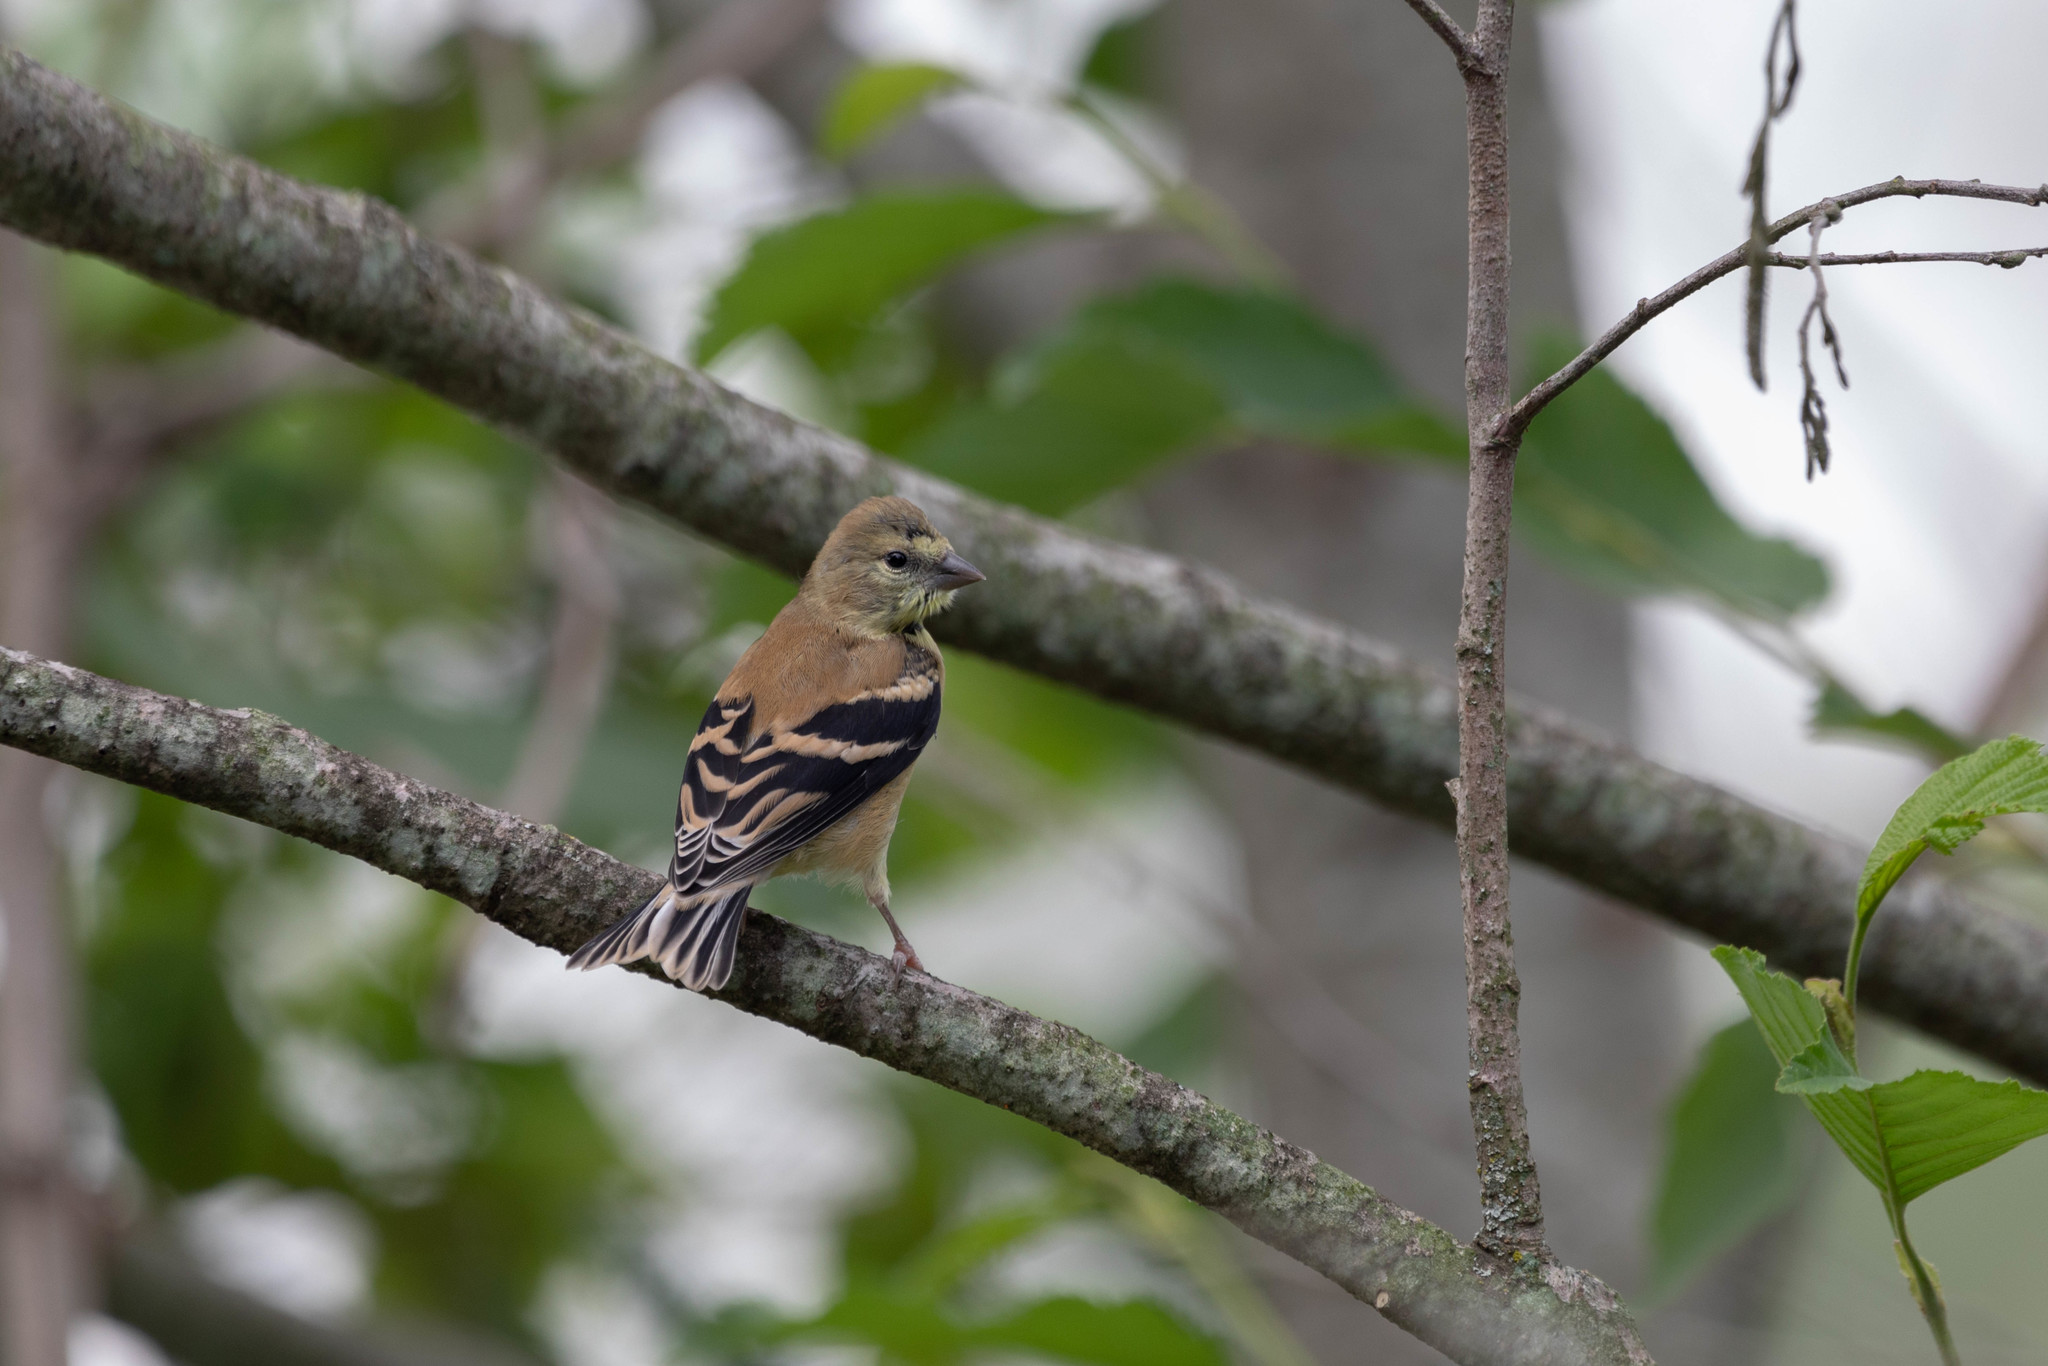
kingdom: Animalia
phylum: Chordata
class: Aves
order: Passeriformes
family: Fringillidae
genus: Spinus
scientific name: Spinus tristis
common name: American goldfinch
